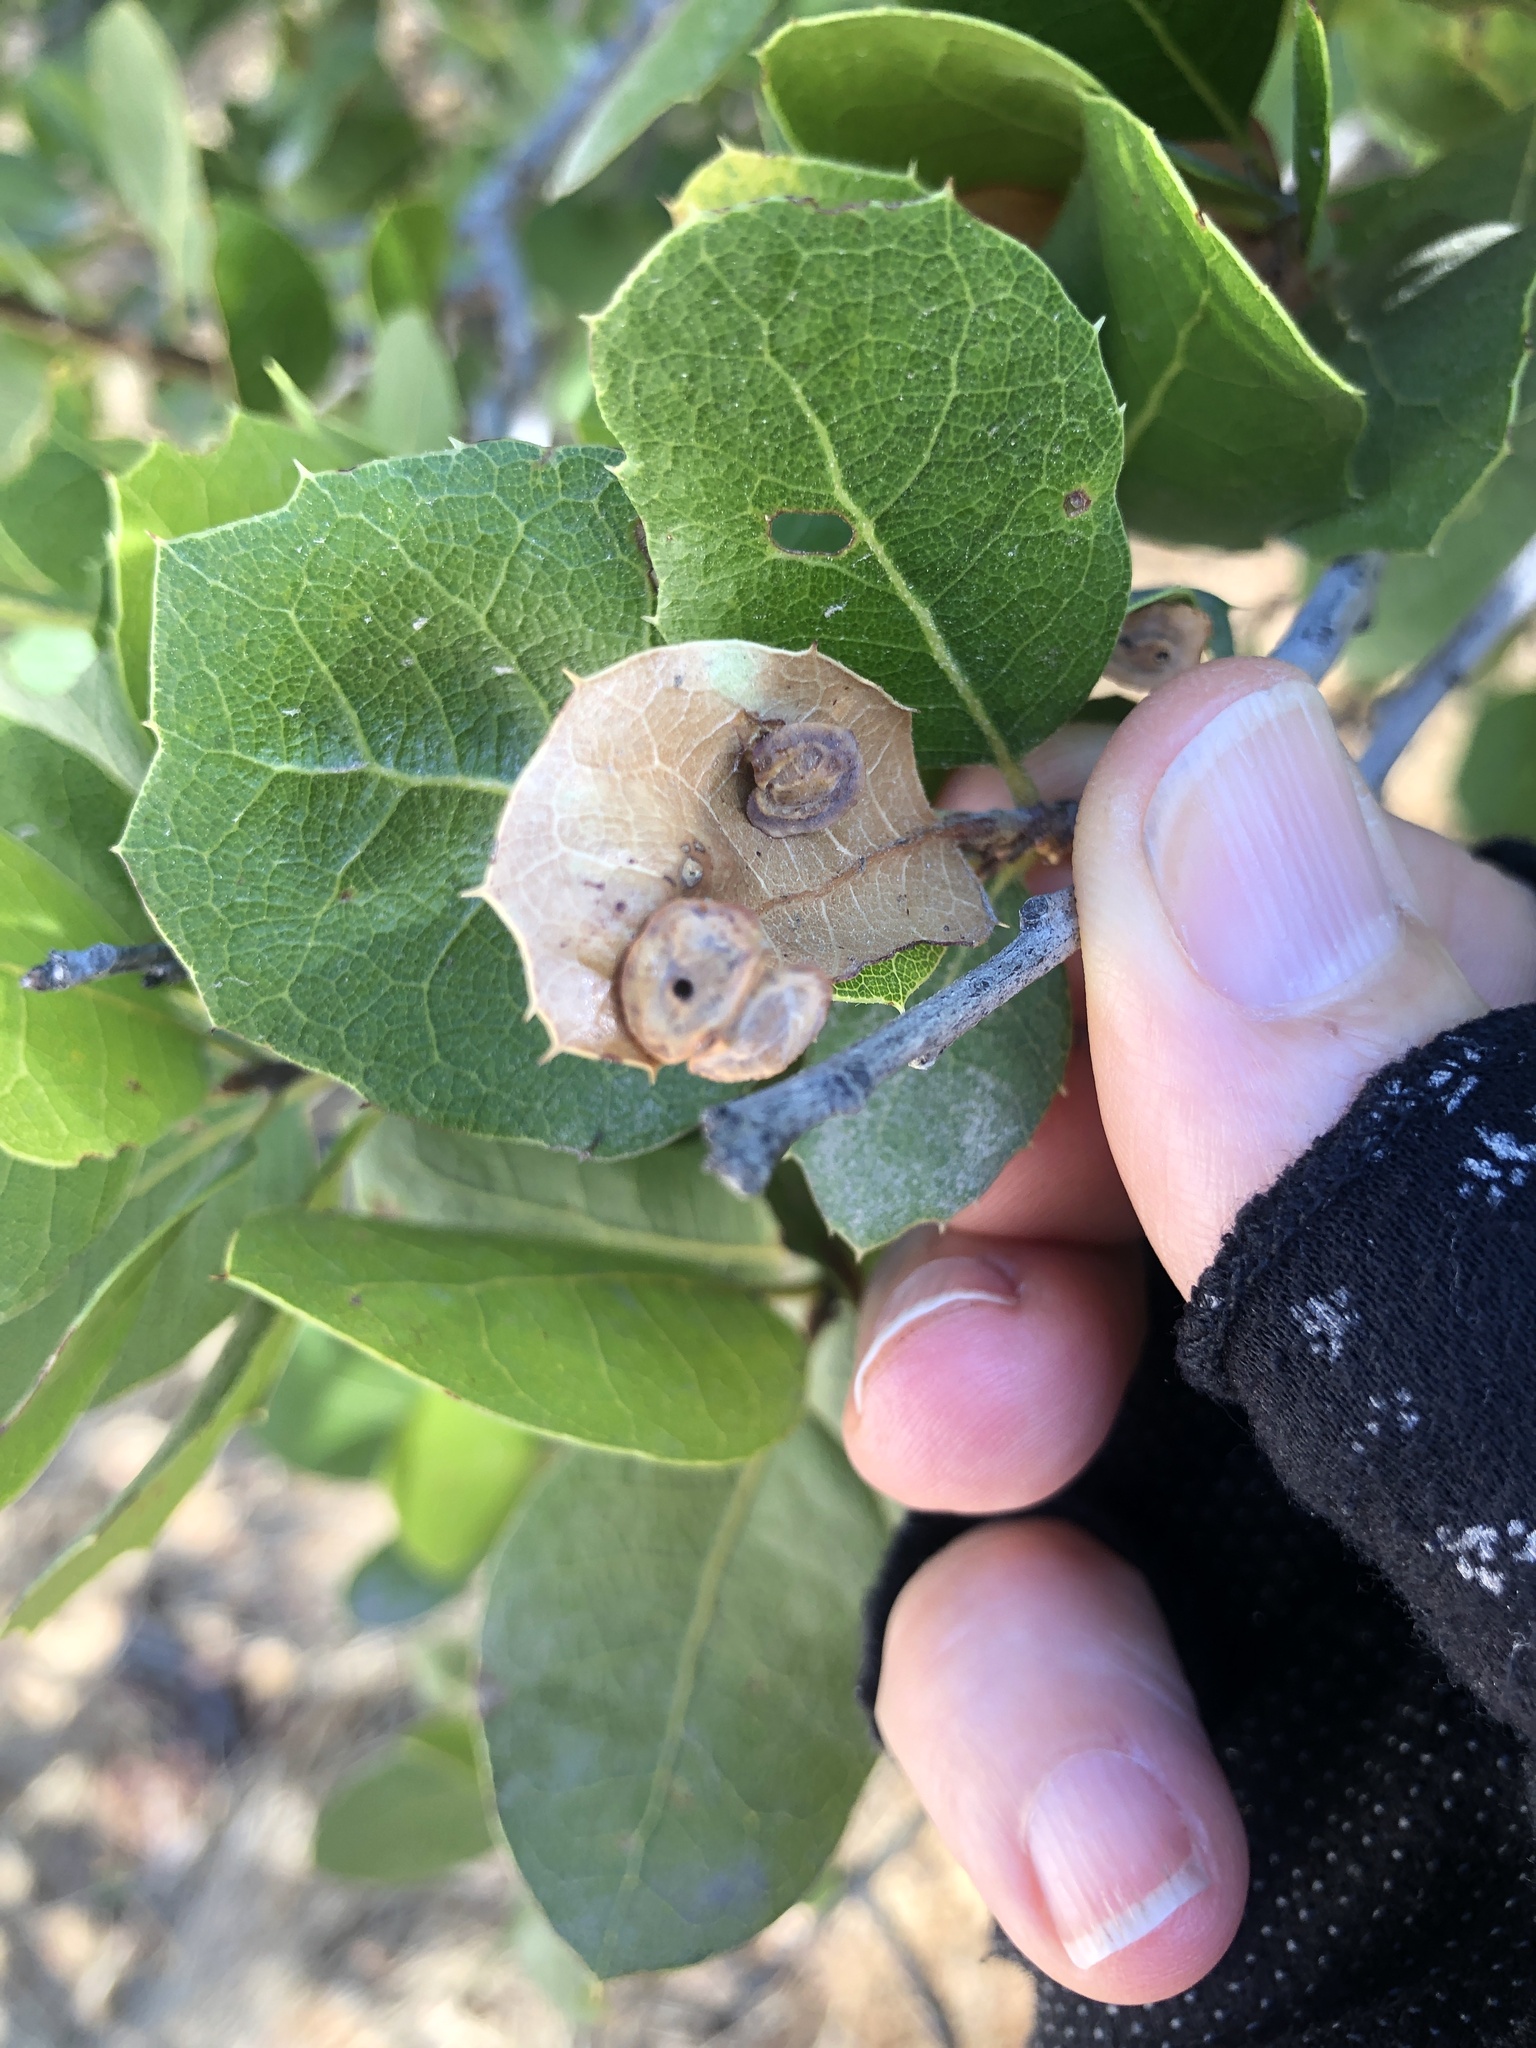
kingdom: Animalia
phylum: Arthropoda
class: Insecta
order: Hymenoptera
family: Cynipidae
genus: Amphibolips
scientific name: Amphibolips quercuspomiformis
